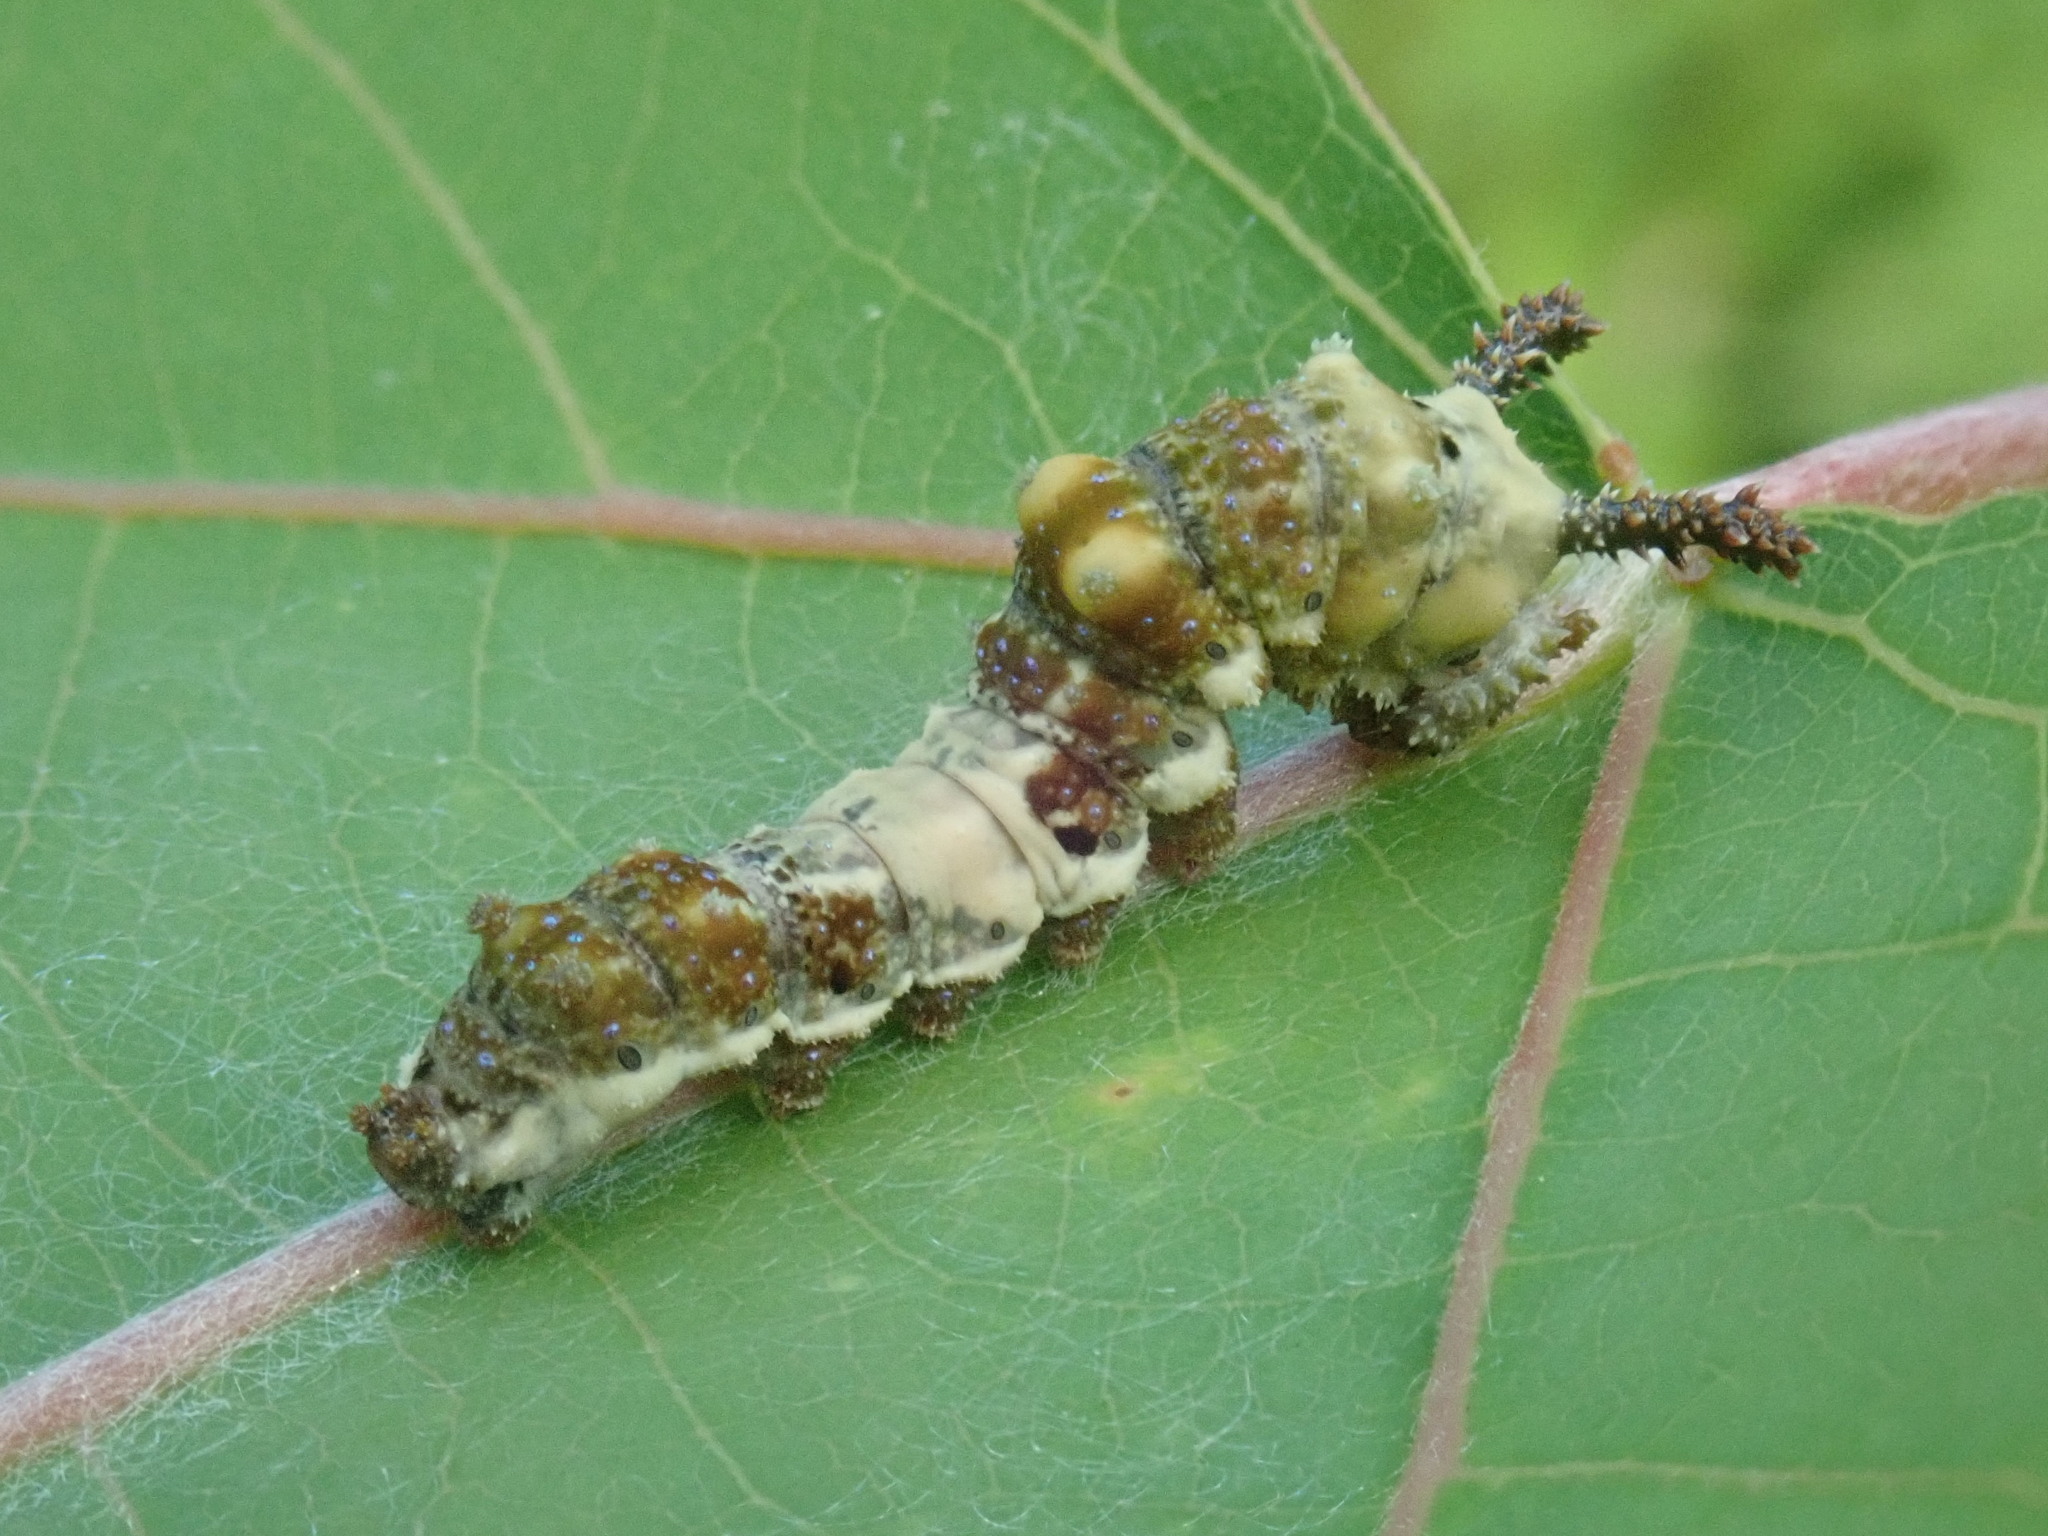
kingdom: Animalia
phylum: Arthropoda
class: Insecta
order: Lepidoptera
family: Nymphalidae
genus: Limenitis
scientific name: Limenitis archippus
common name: Viceroy
